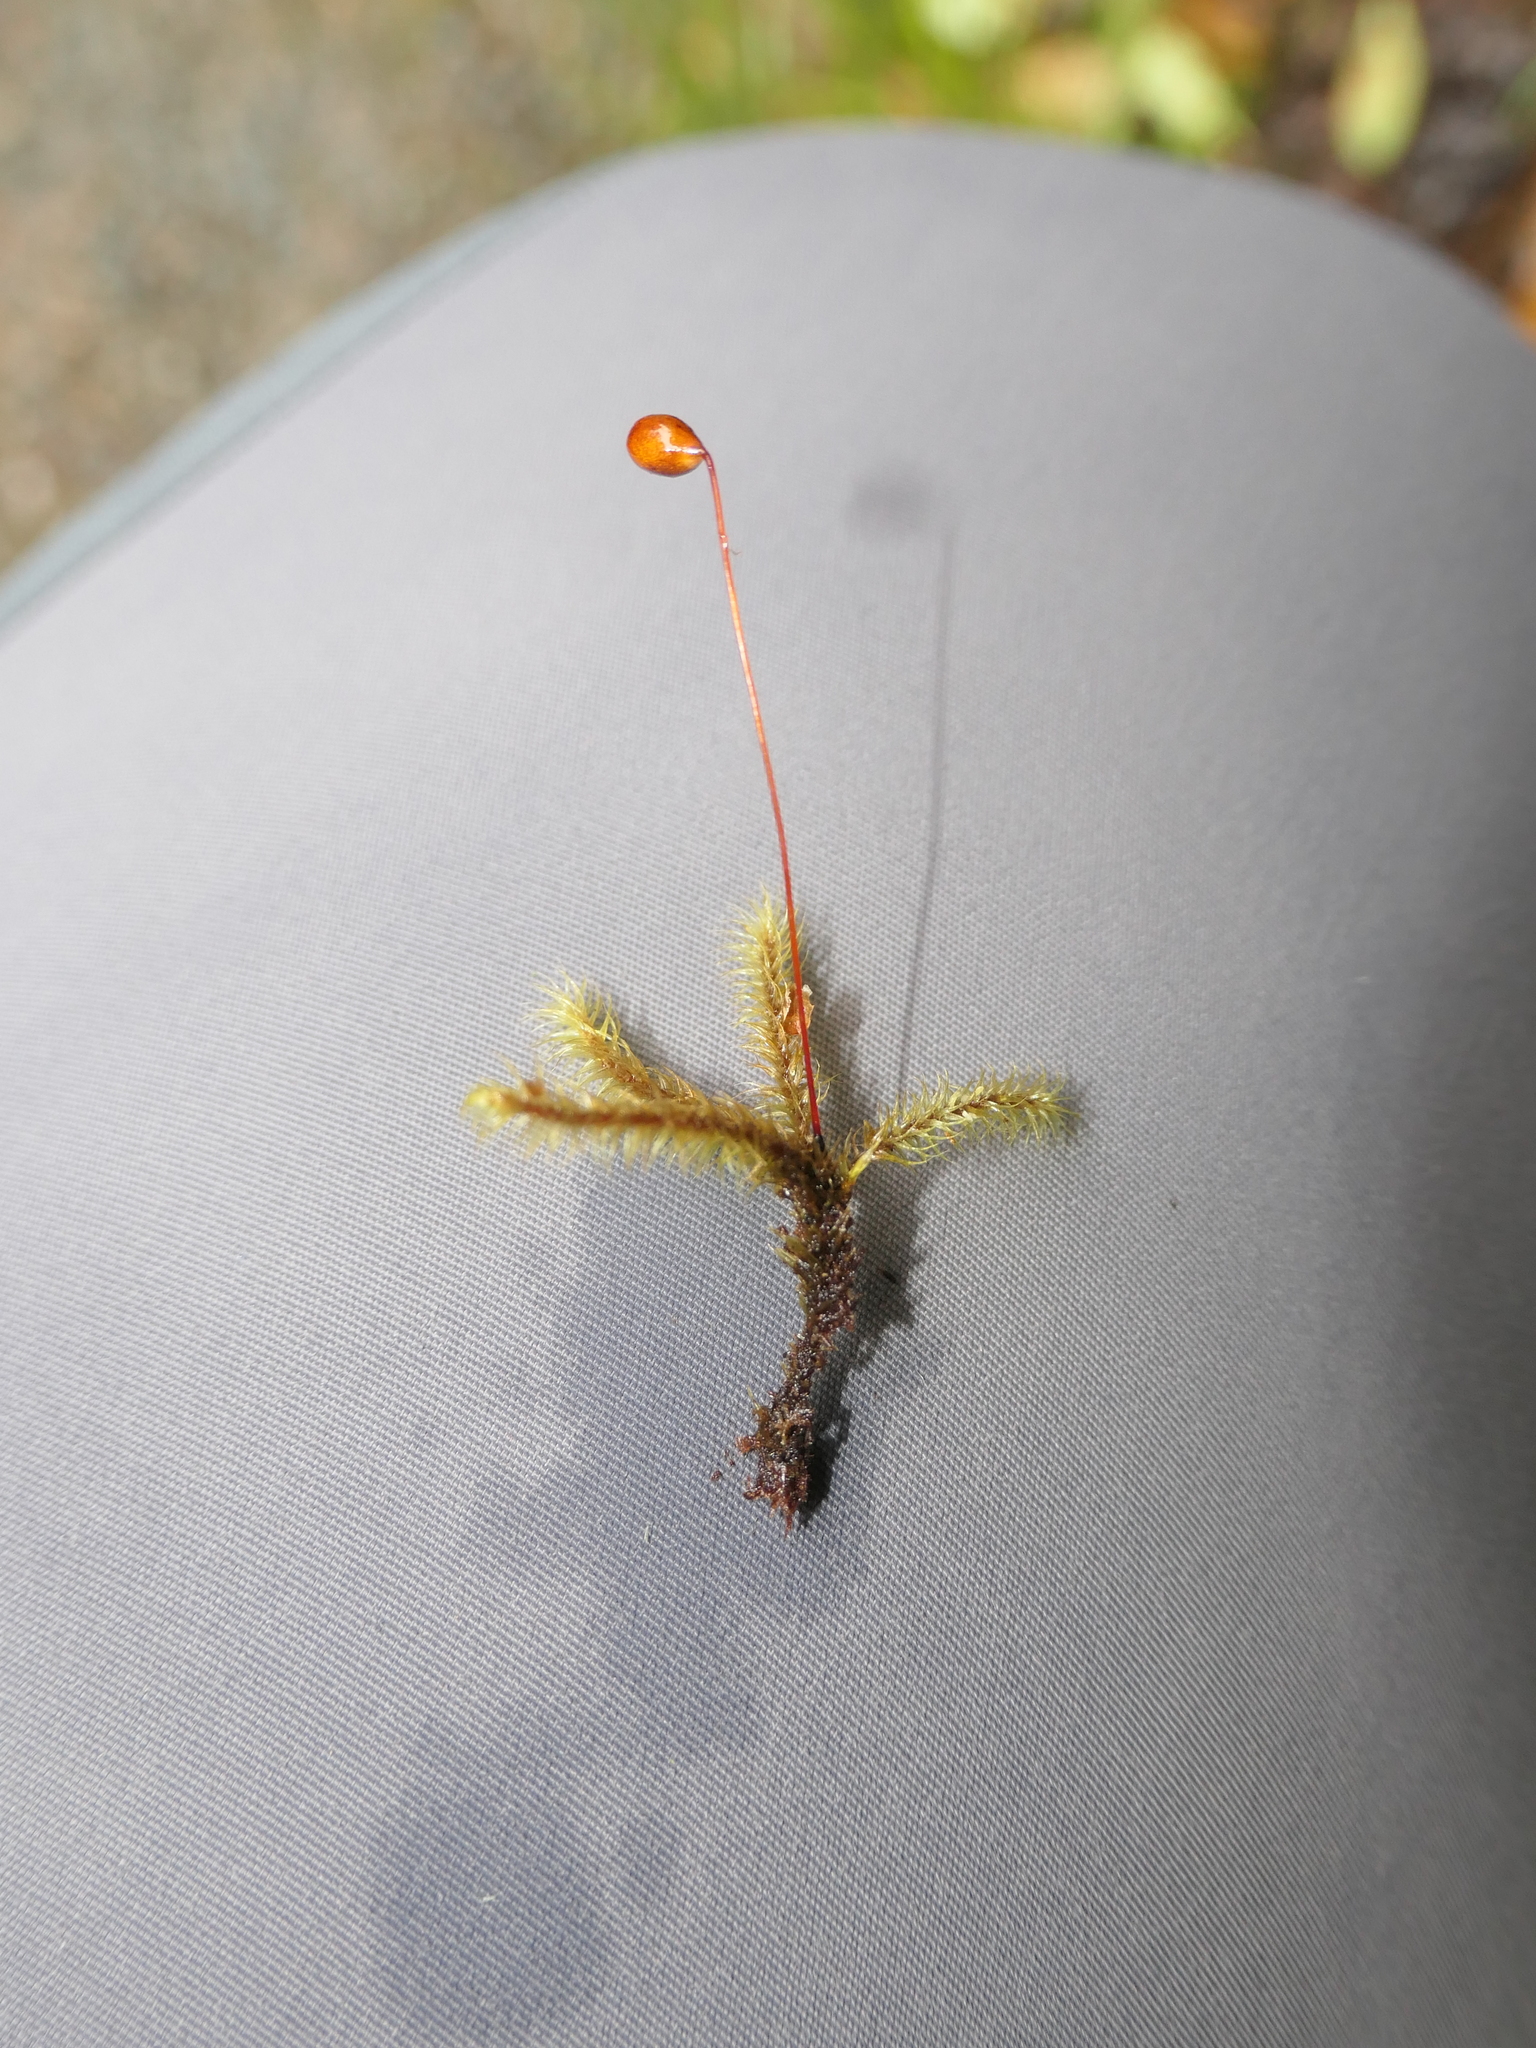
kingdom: Plantae
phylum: Bryophyta
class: Bryopsida
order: Bartramiales
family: Bartramiaceae
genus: Breutelia
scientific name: Breutelia pendula
